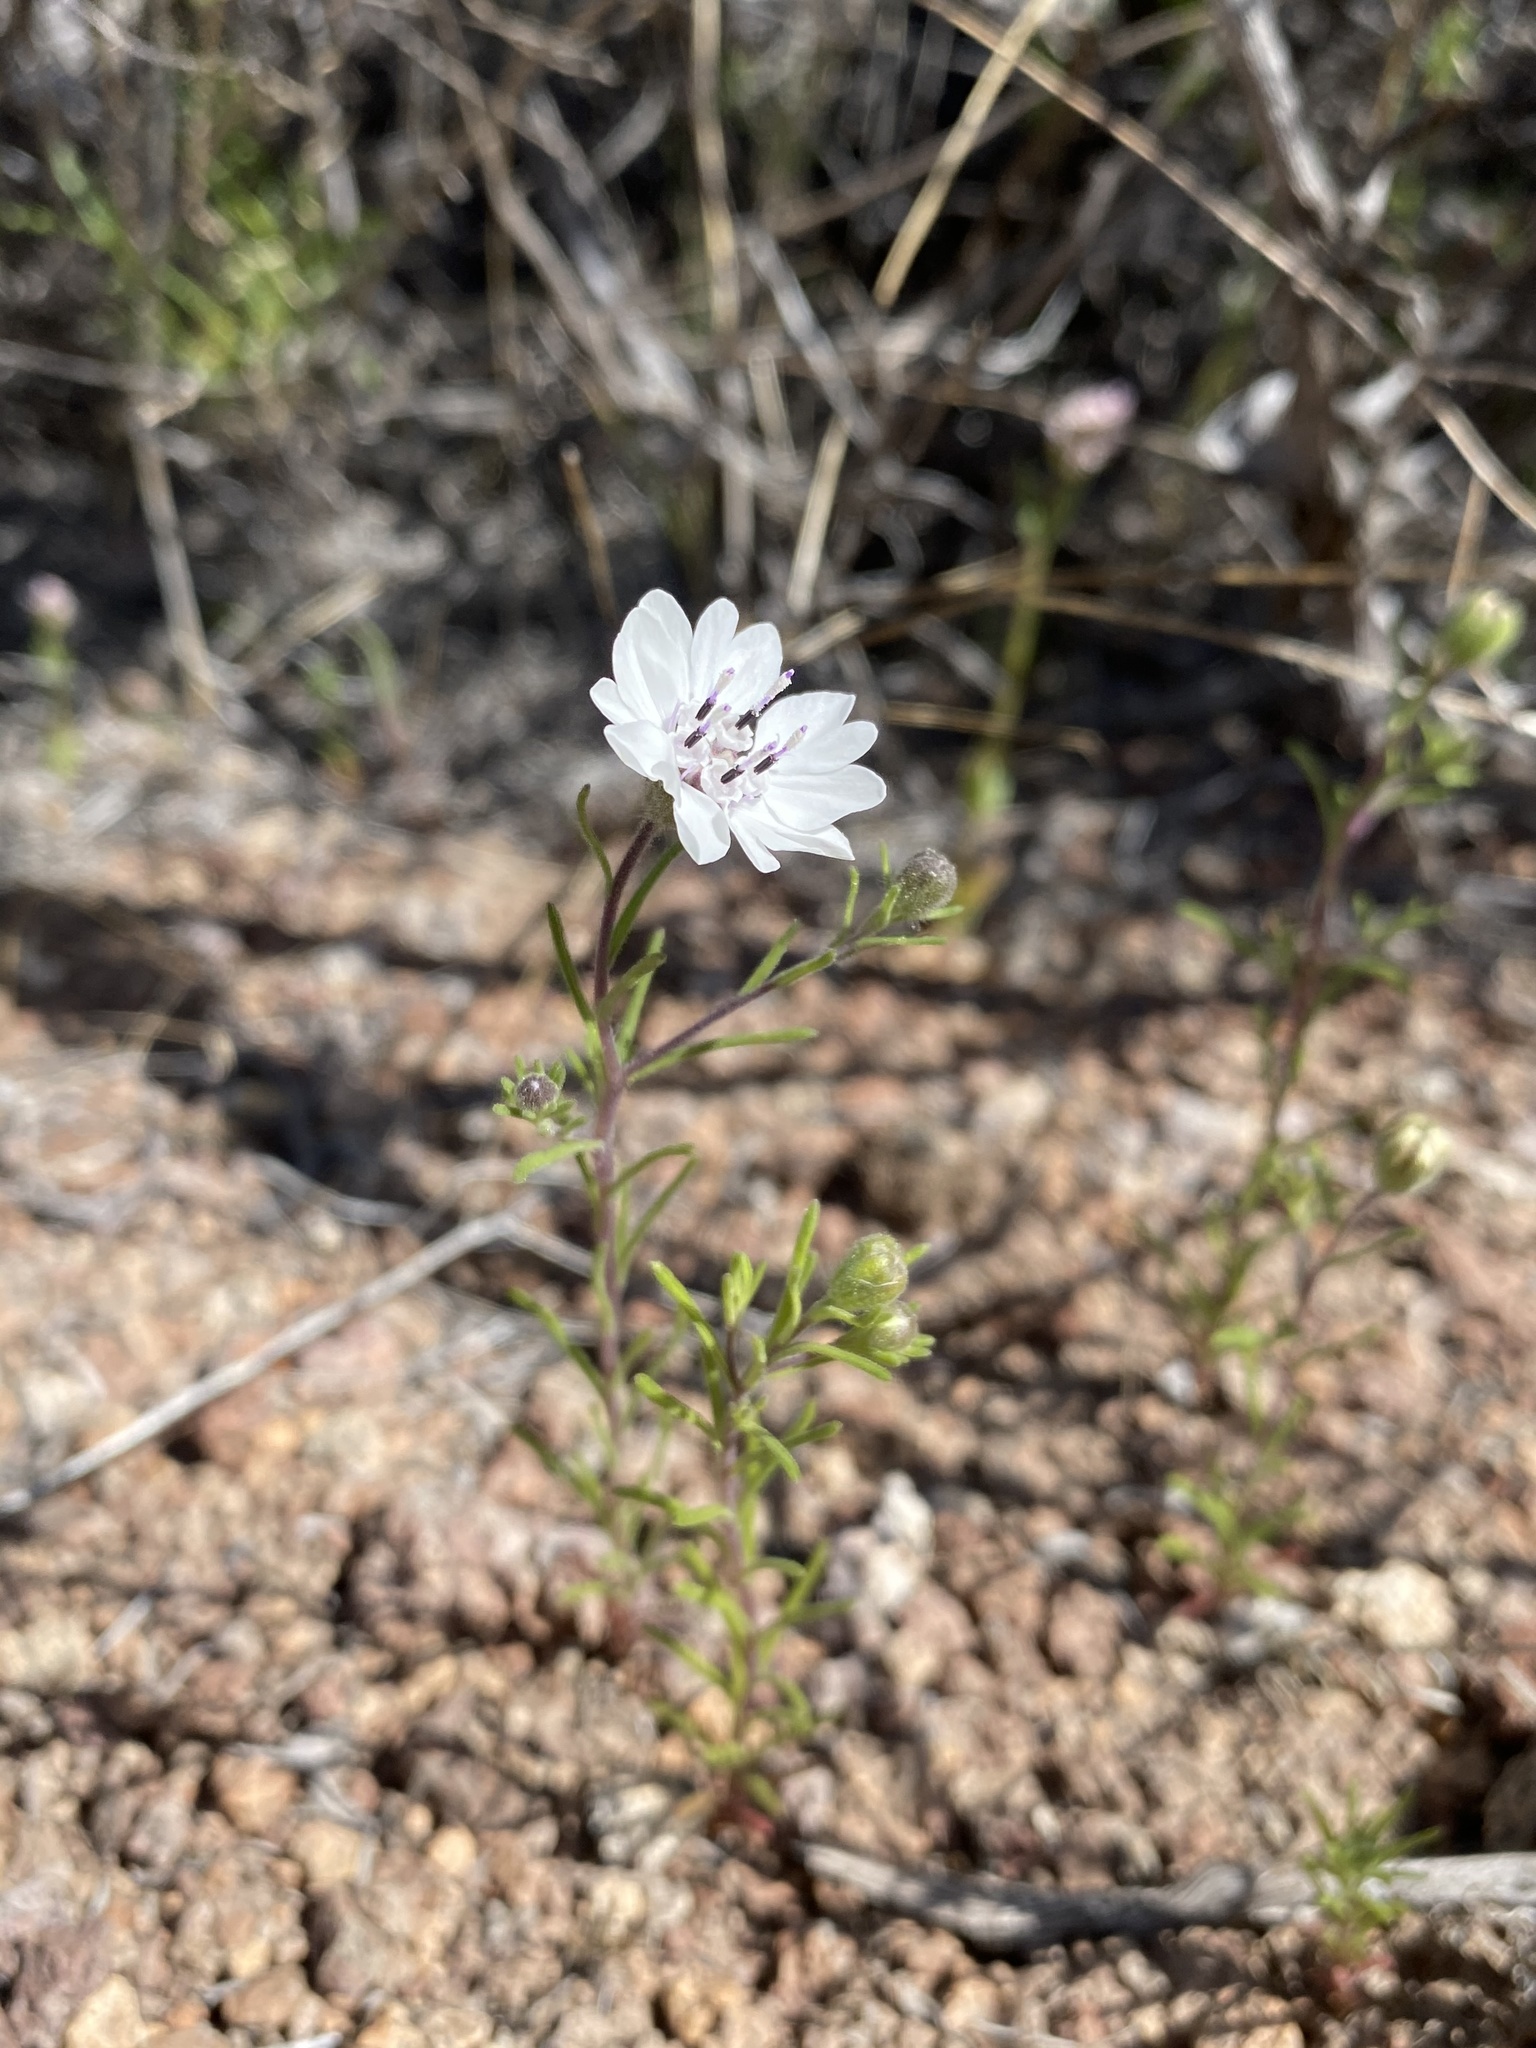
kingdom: Plantae
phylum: Tracheophyta
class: Magnoliopsida
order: Asterales
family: Asteraceae
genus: Blepharipappus
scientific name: Blepharipappus scaber
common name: Rough blepharipappus
